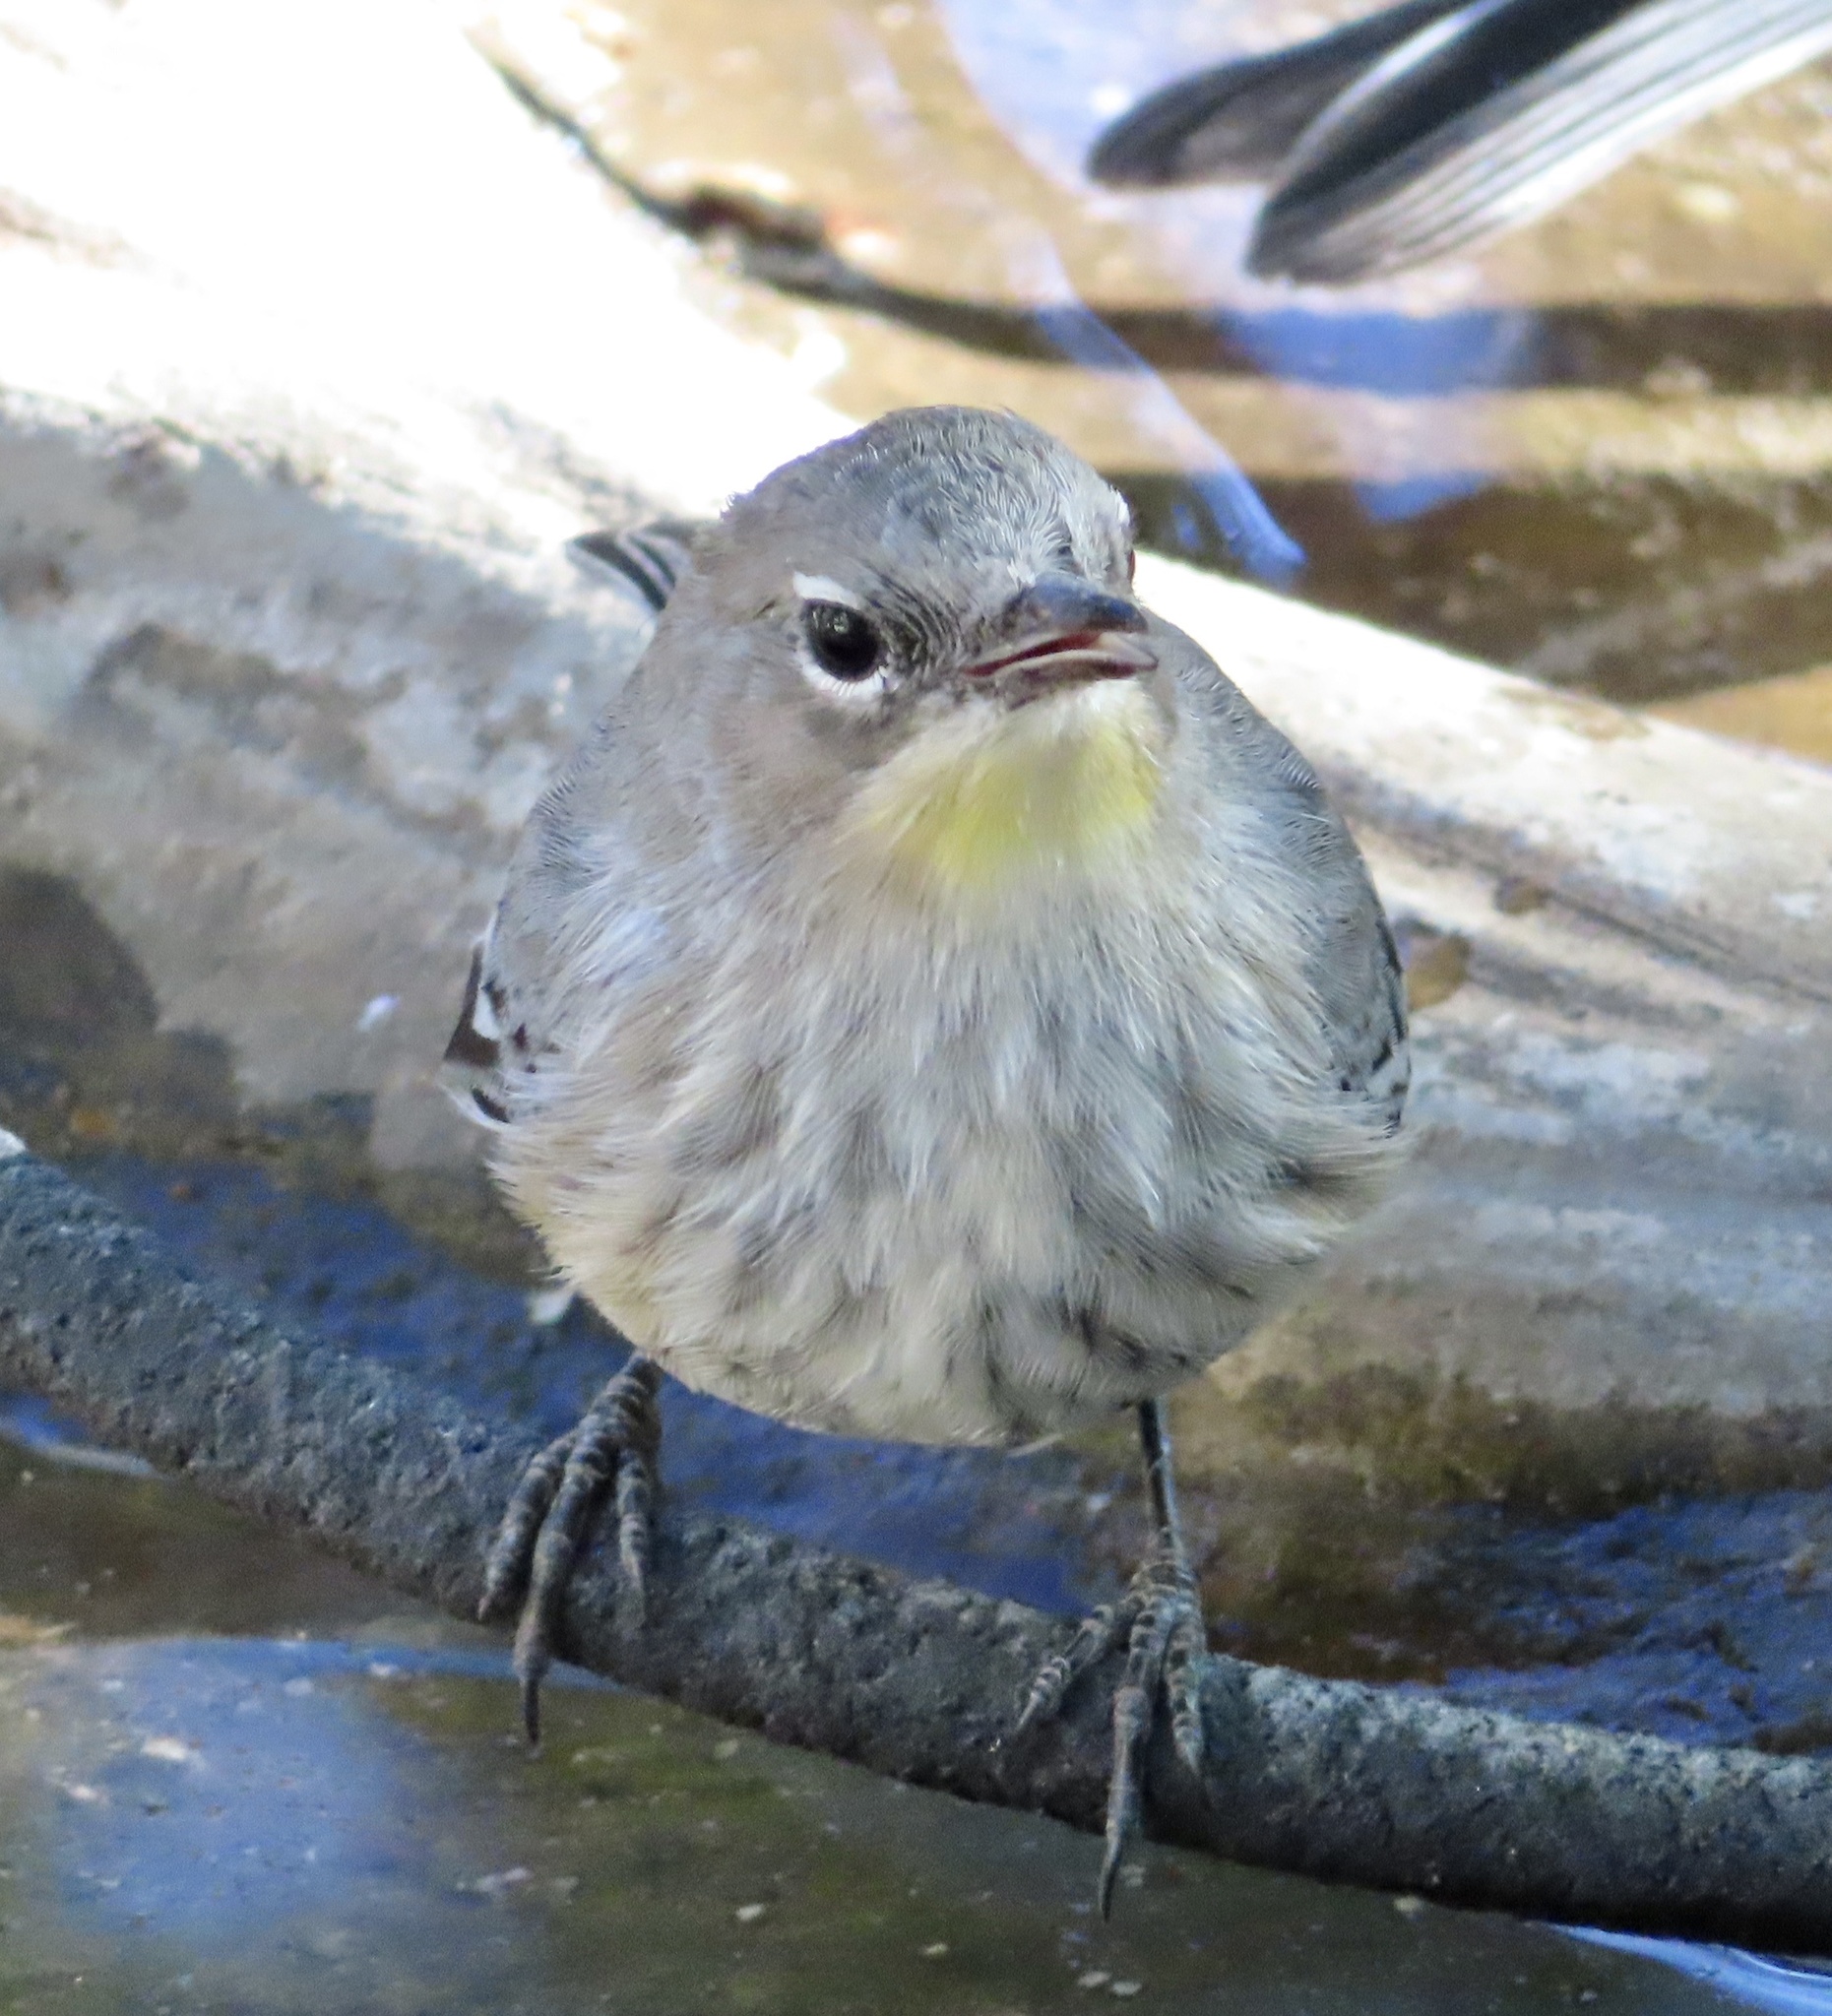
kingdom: Animalia
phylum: Chordata
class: Aves
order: Passeriformes
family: Parulidae
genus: Setophaga
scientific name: Setophaga auduboni
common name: Audubon's warbler
